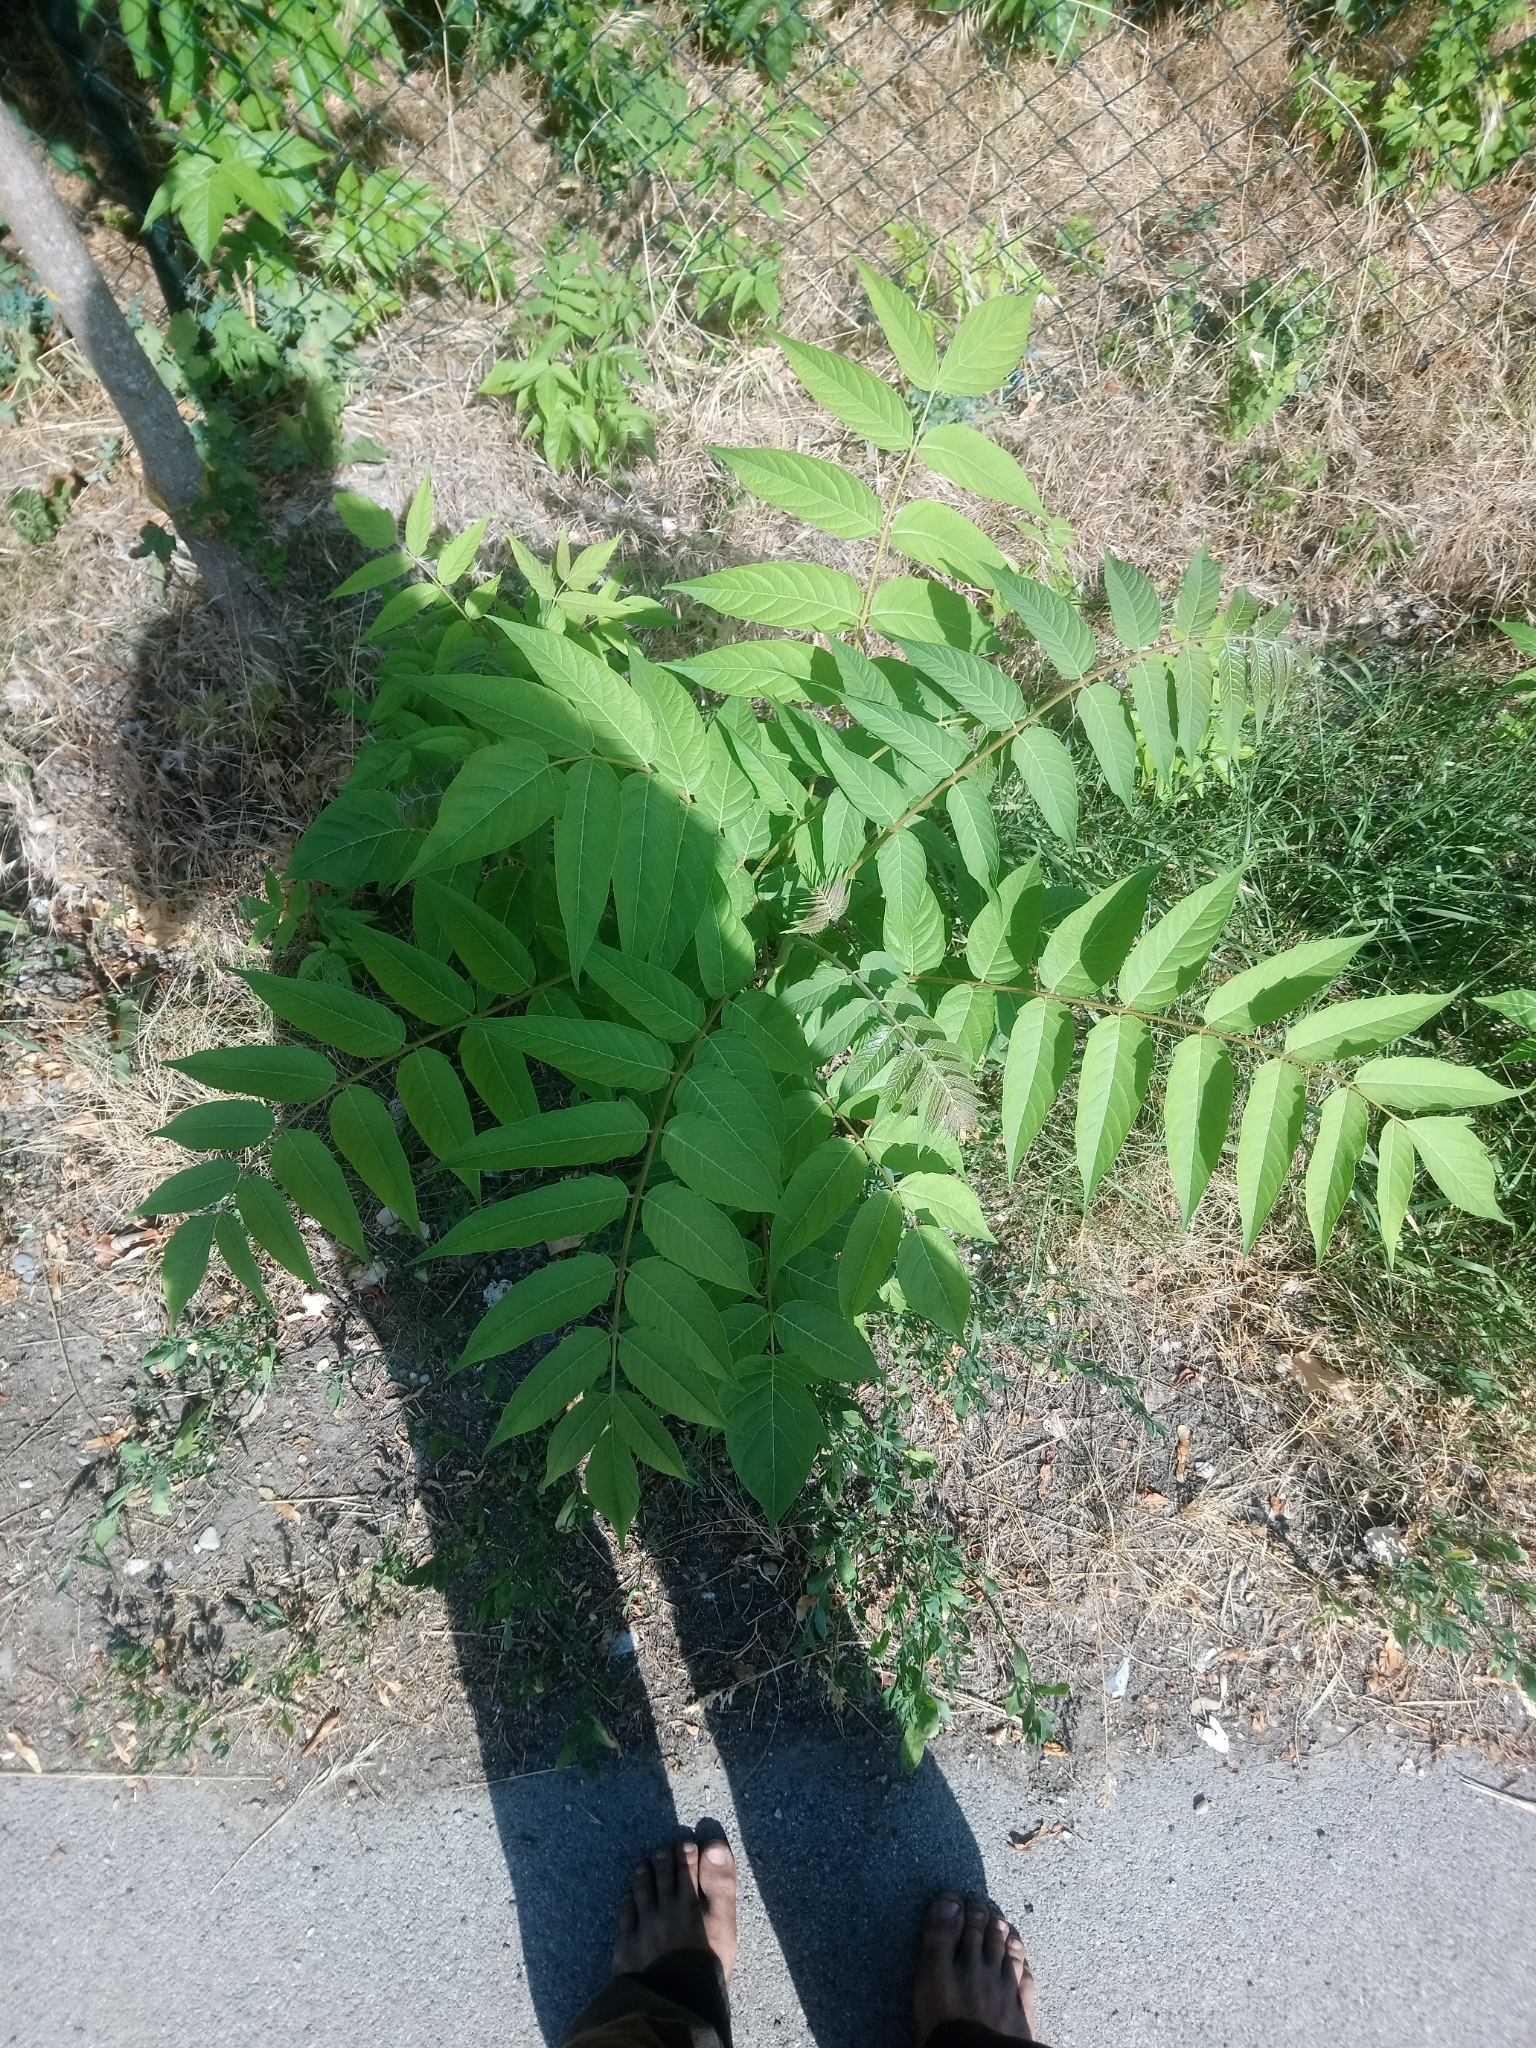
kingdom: Plantae
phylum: Tracheophyta
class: Magnoliopsida
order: Sapindales
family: Simaroubaceae
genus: Ailanthus
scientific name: Ailanthus altissima
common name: Tree-of-heaven
